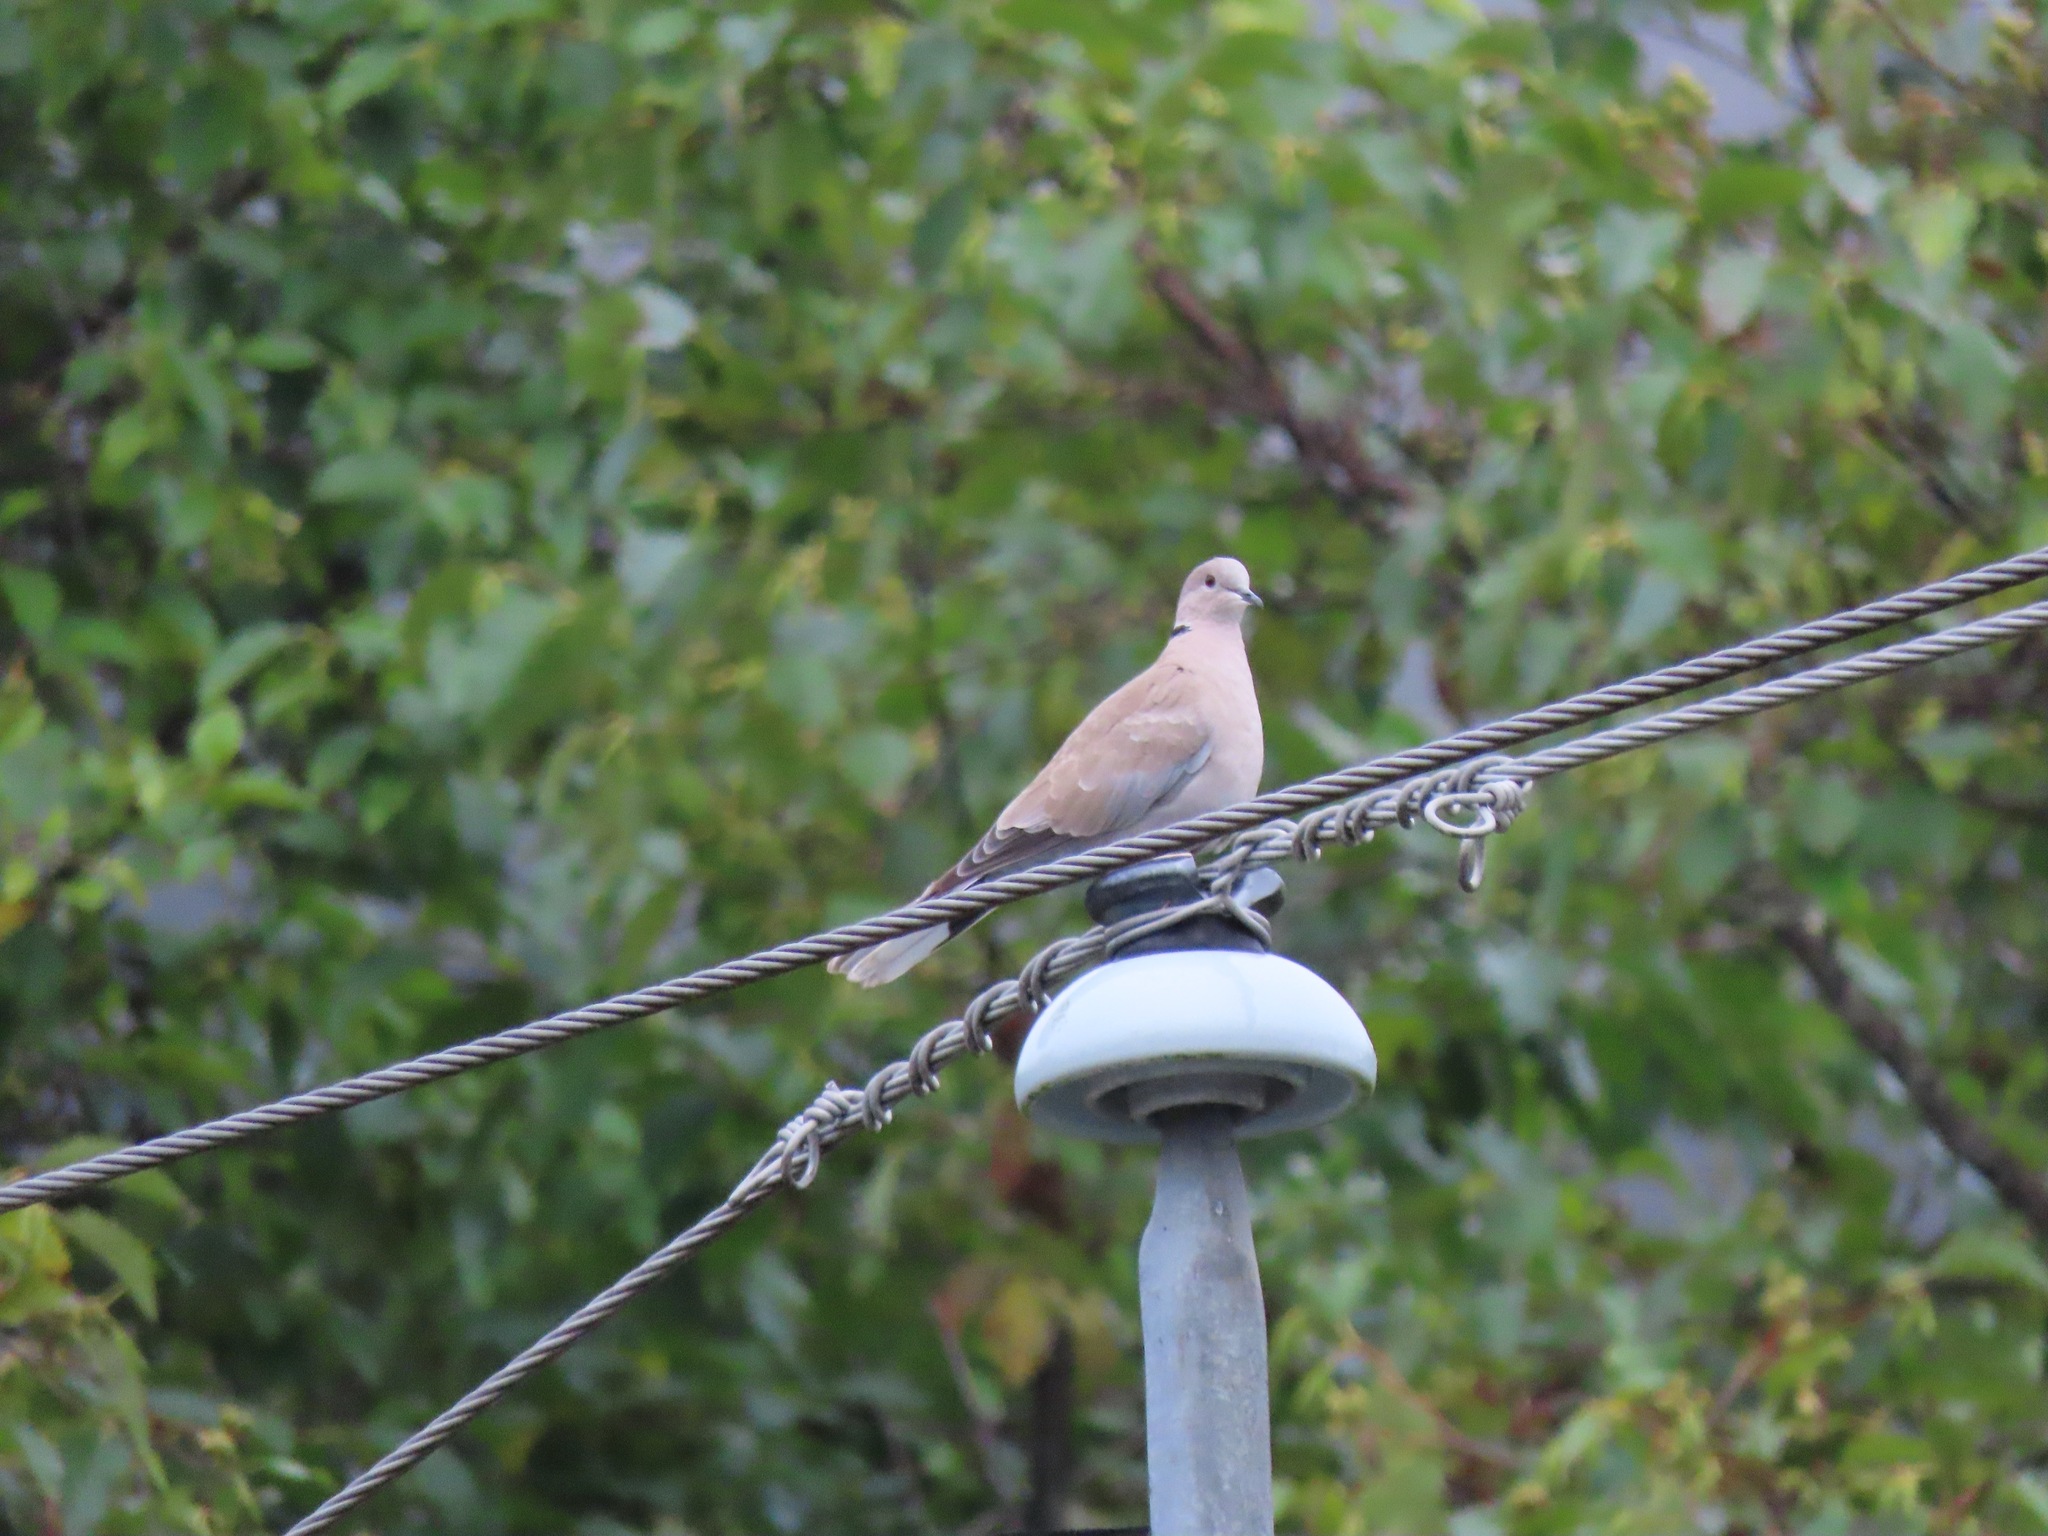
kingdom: Animalia
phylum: Chordata
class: Aves
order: Columbiformes
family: Columbidae
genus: Streptopelia
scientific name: Streptopelia decaocto
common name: Eurasian collared dove
